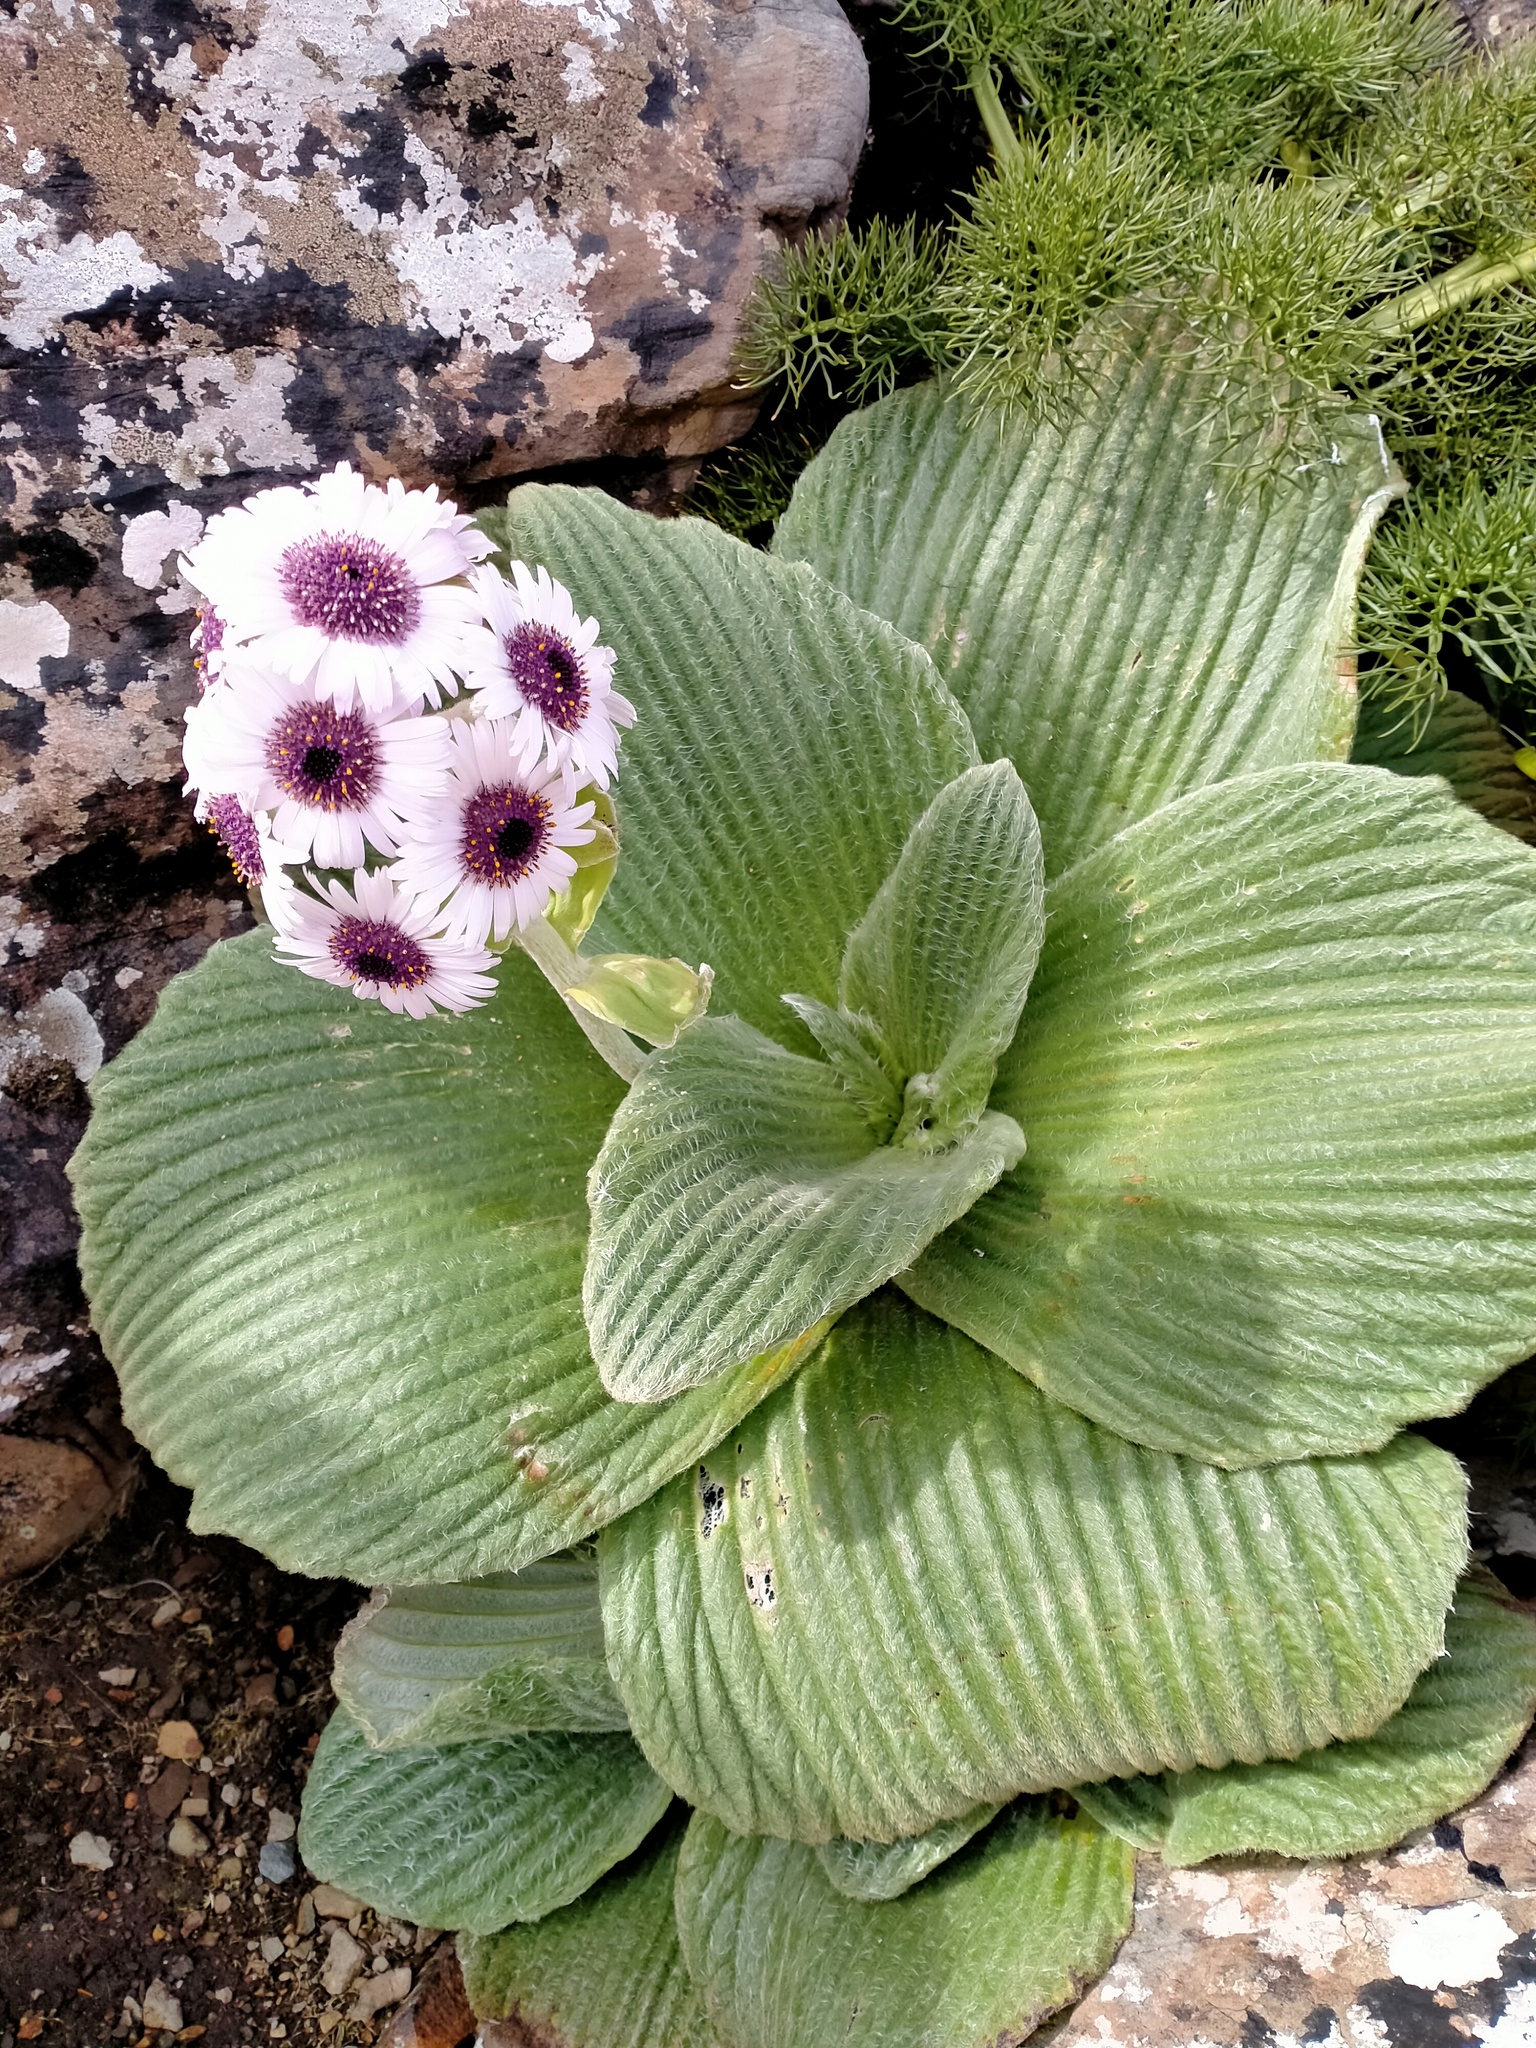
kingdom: Plantae
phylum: Tracheophyta
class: Magnoliopsida
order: Asterales
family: Asteraceae
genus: Pleurophyllum
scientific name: Pleurophyllum speciosum
